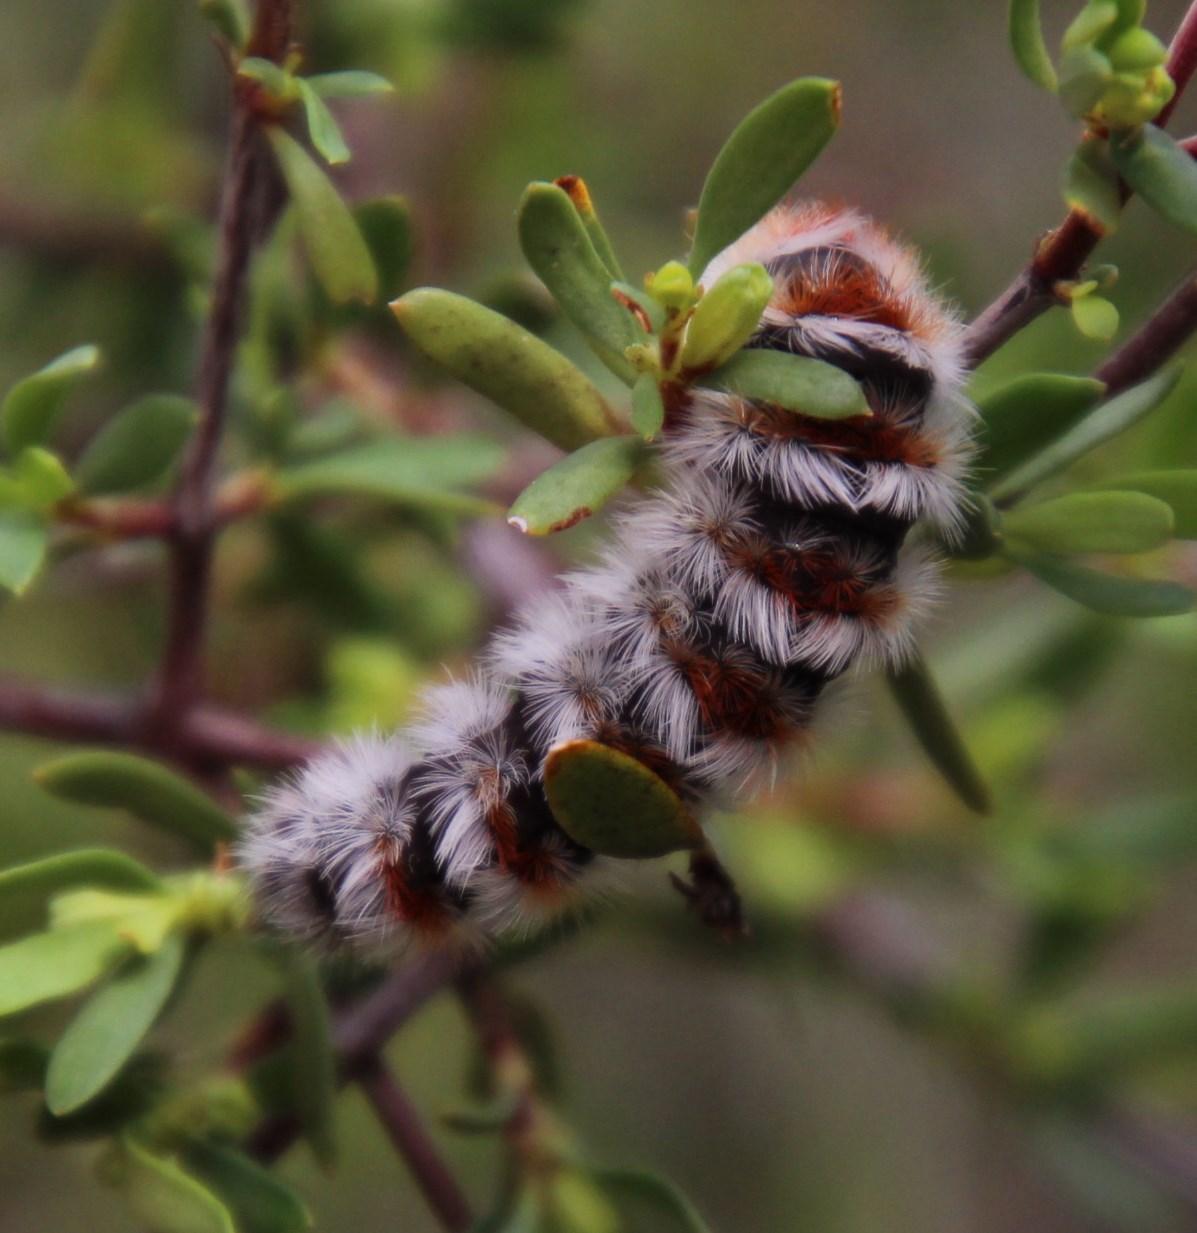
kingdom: Animalia
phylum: Arthropoda
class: Insecta
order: Lepidoptera
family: Erebidae
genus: Aizoa
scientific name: Aizoa namaqua
